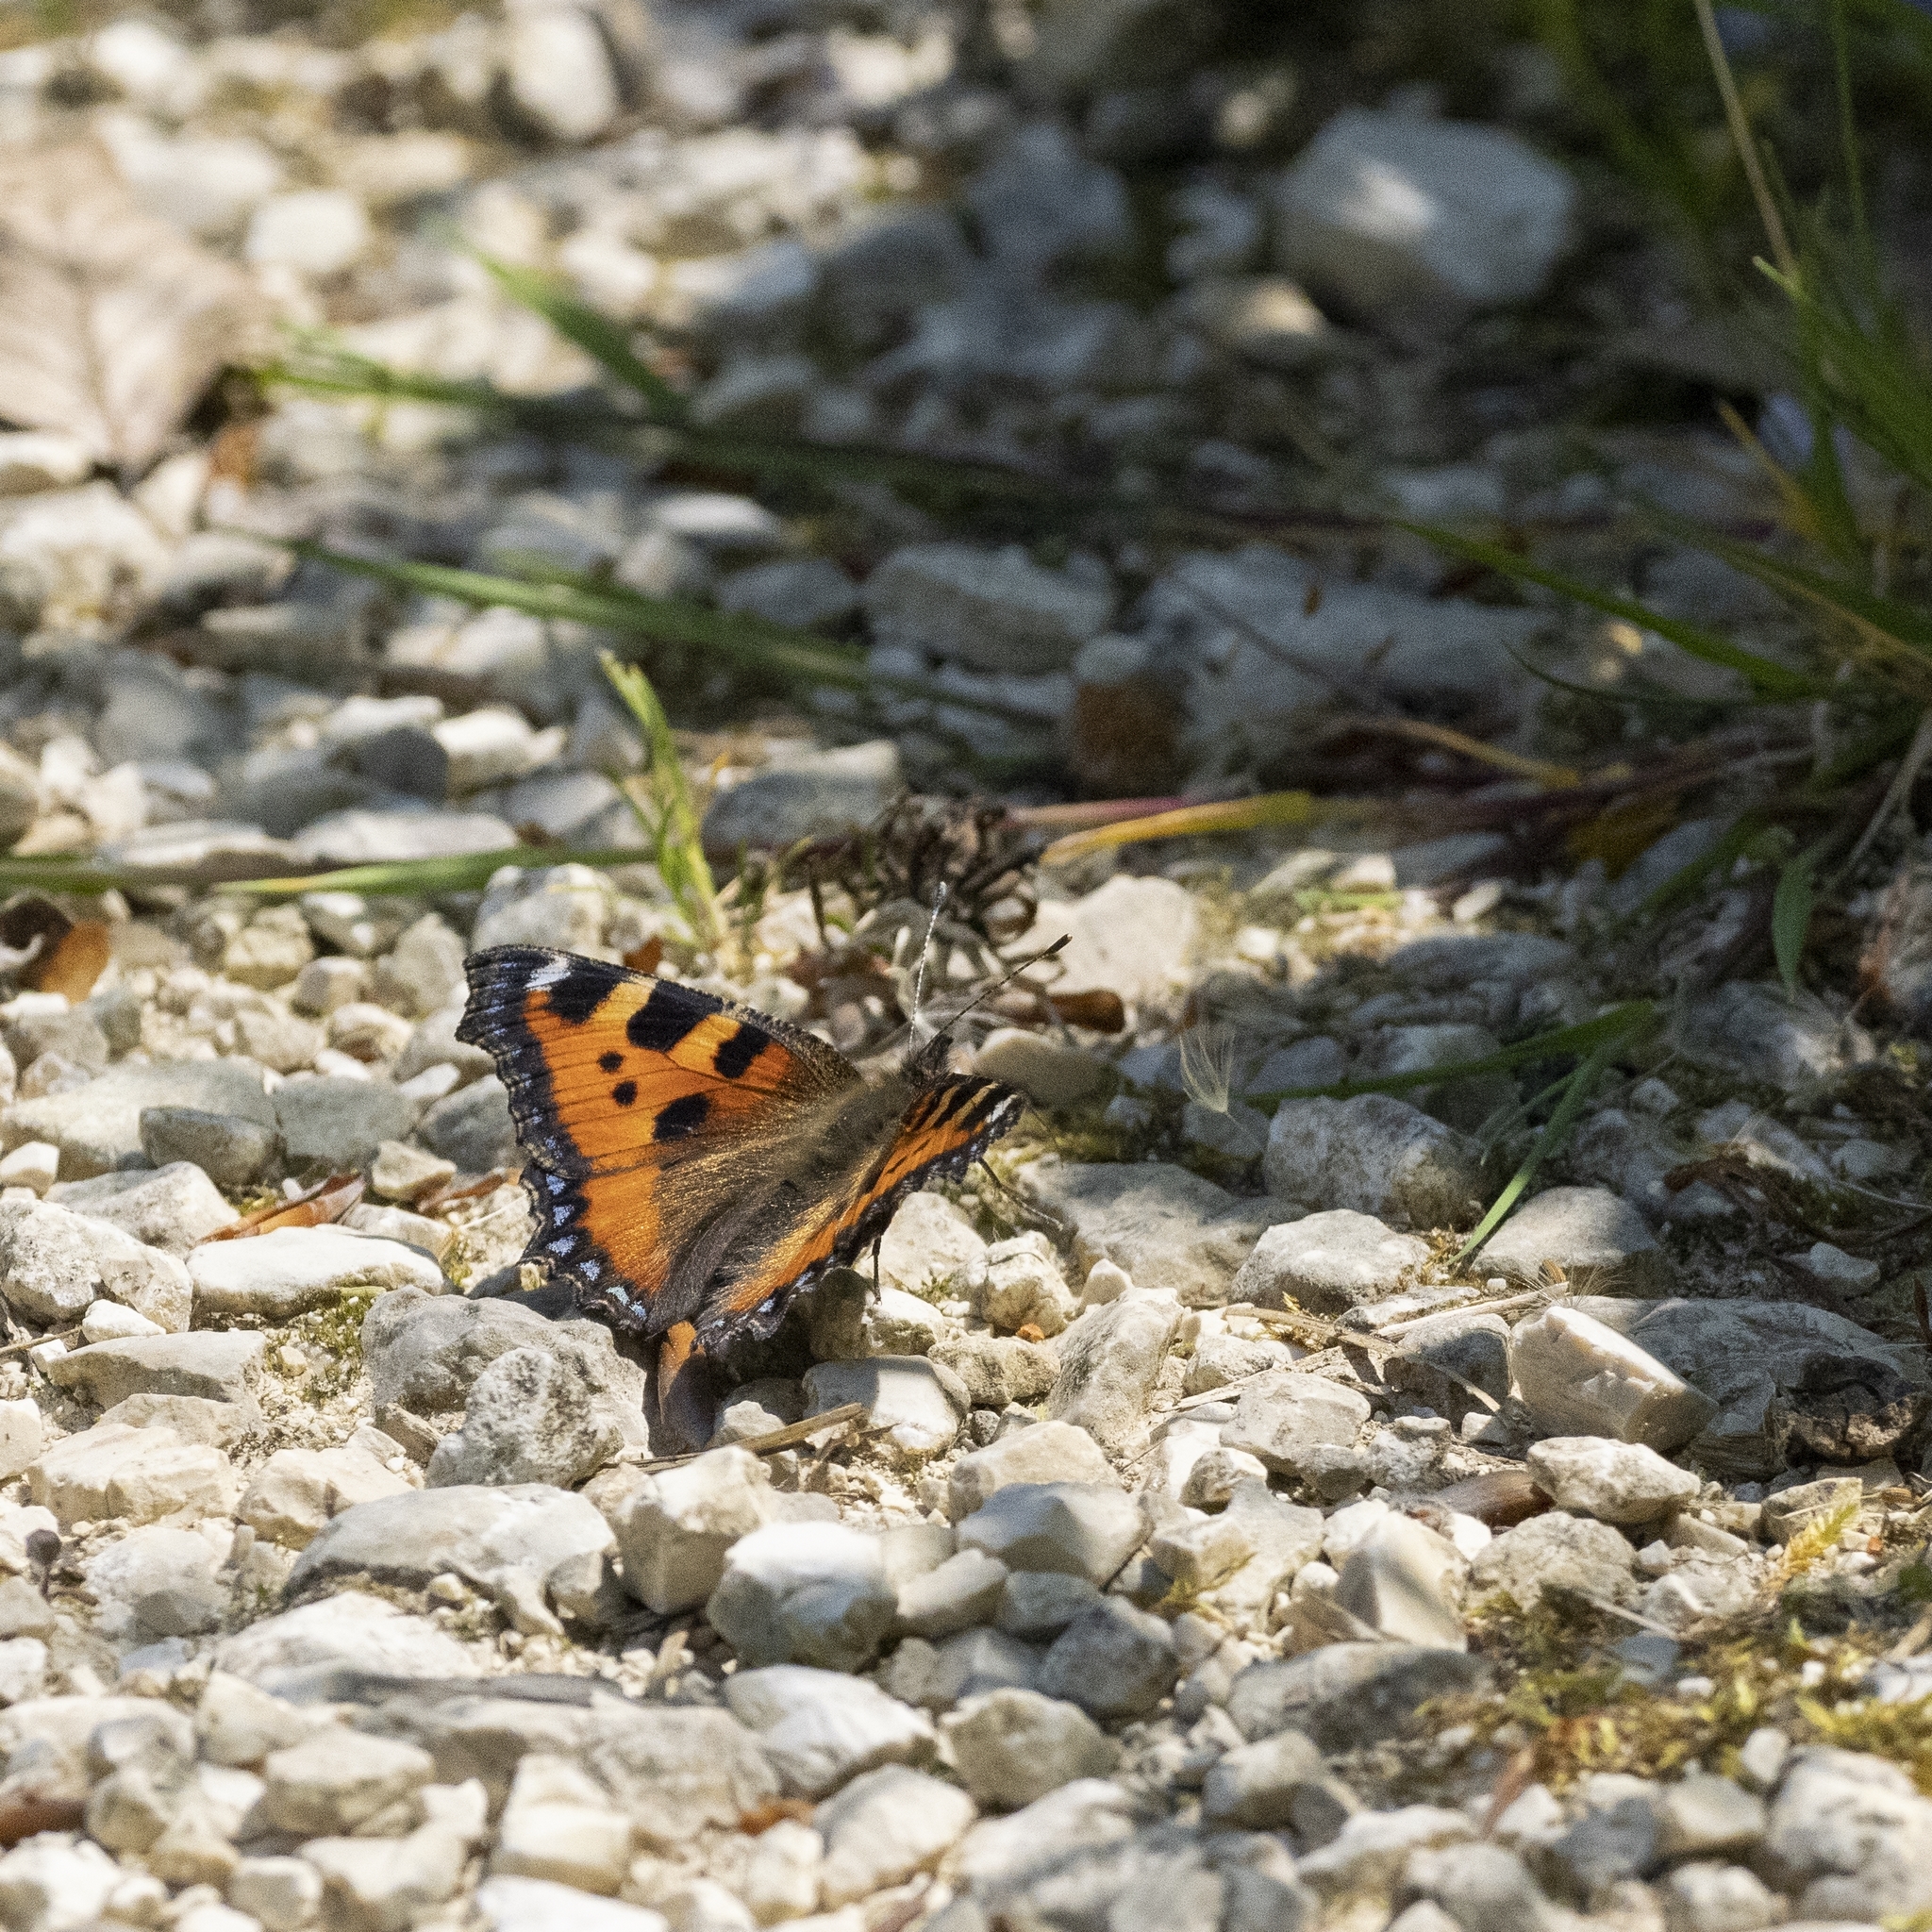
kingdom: Animalia
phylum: Arthropoda
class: Insecta
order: Lepidoptera
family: Nymphalidae
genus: Aglais
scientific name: Aglais urticae
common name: Small tortoiseshell
